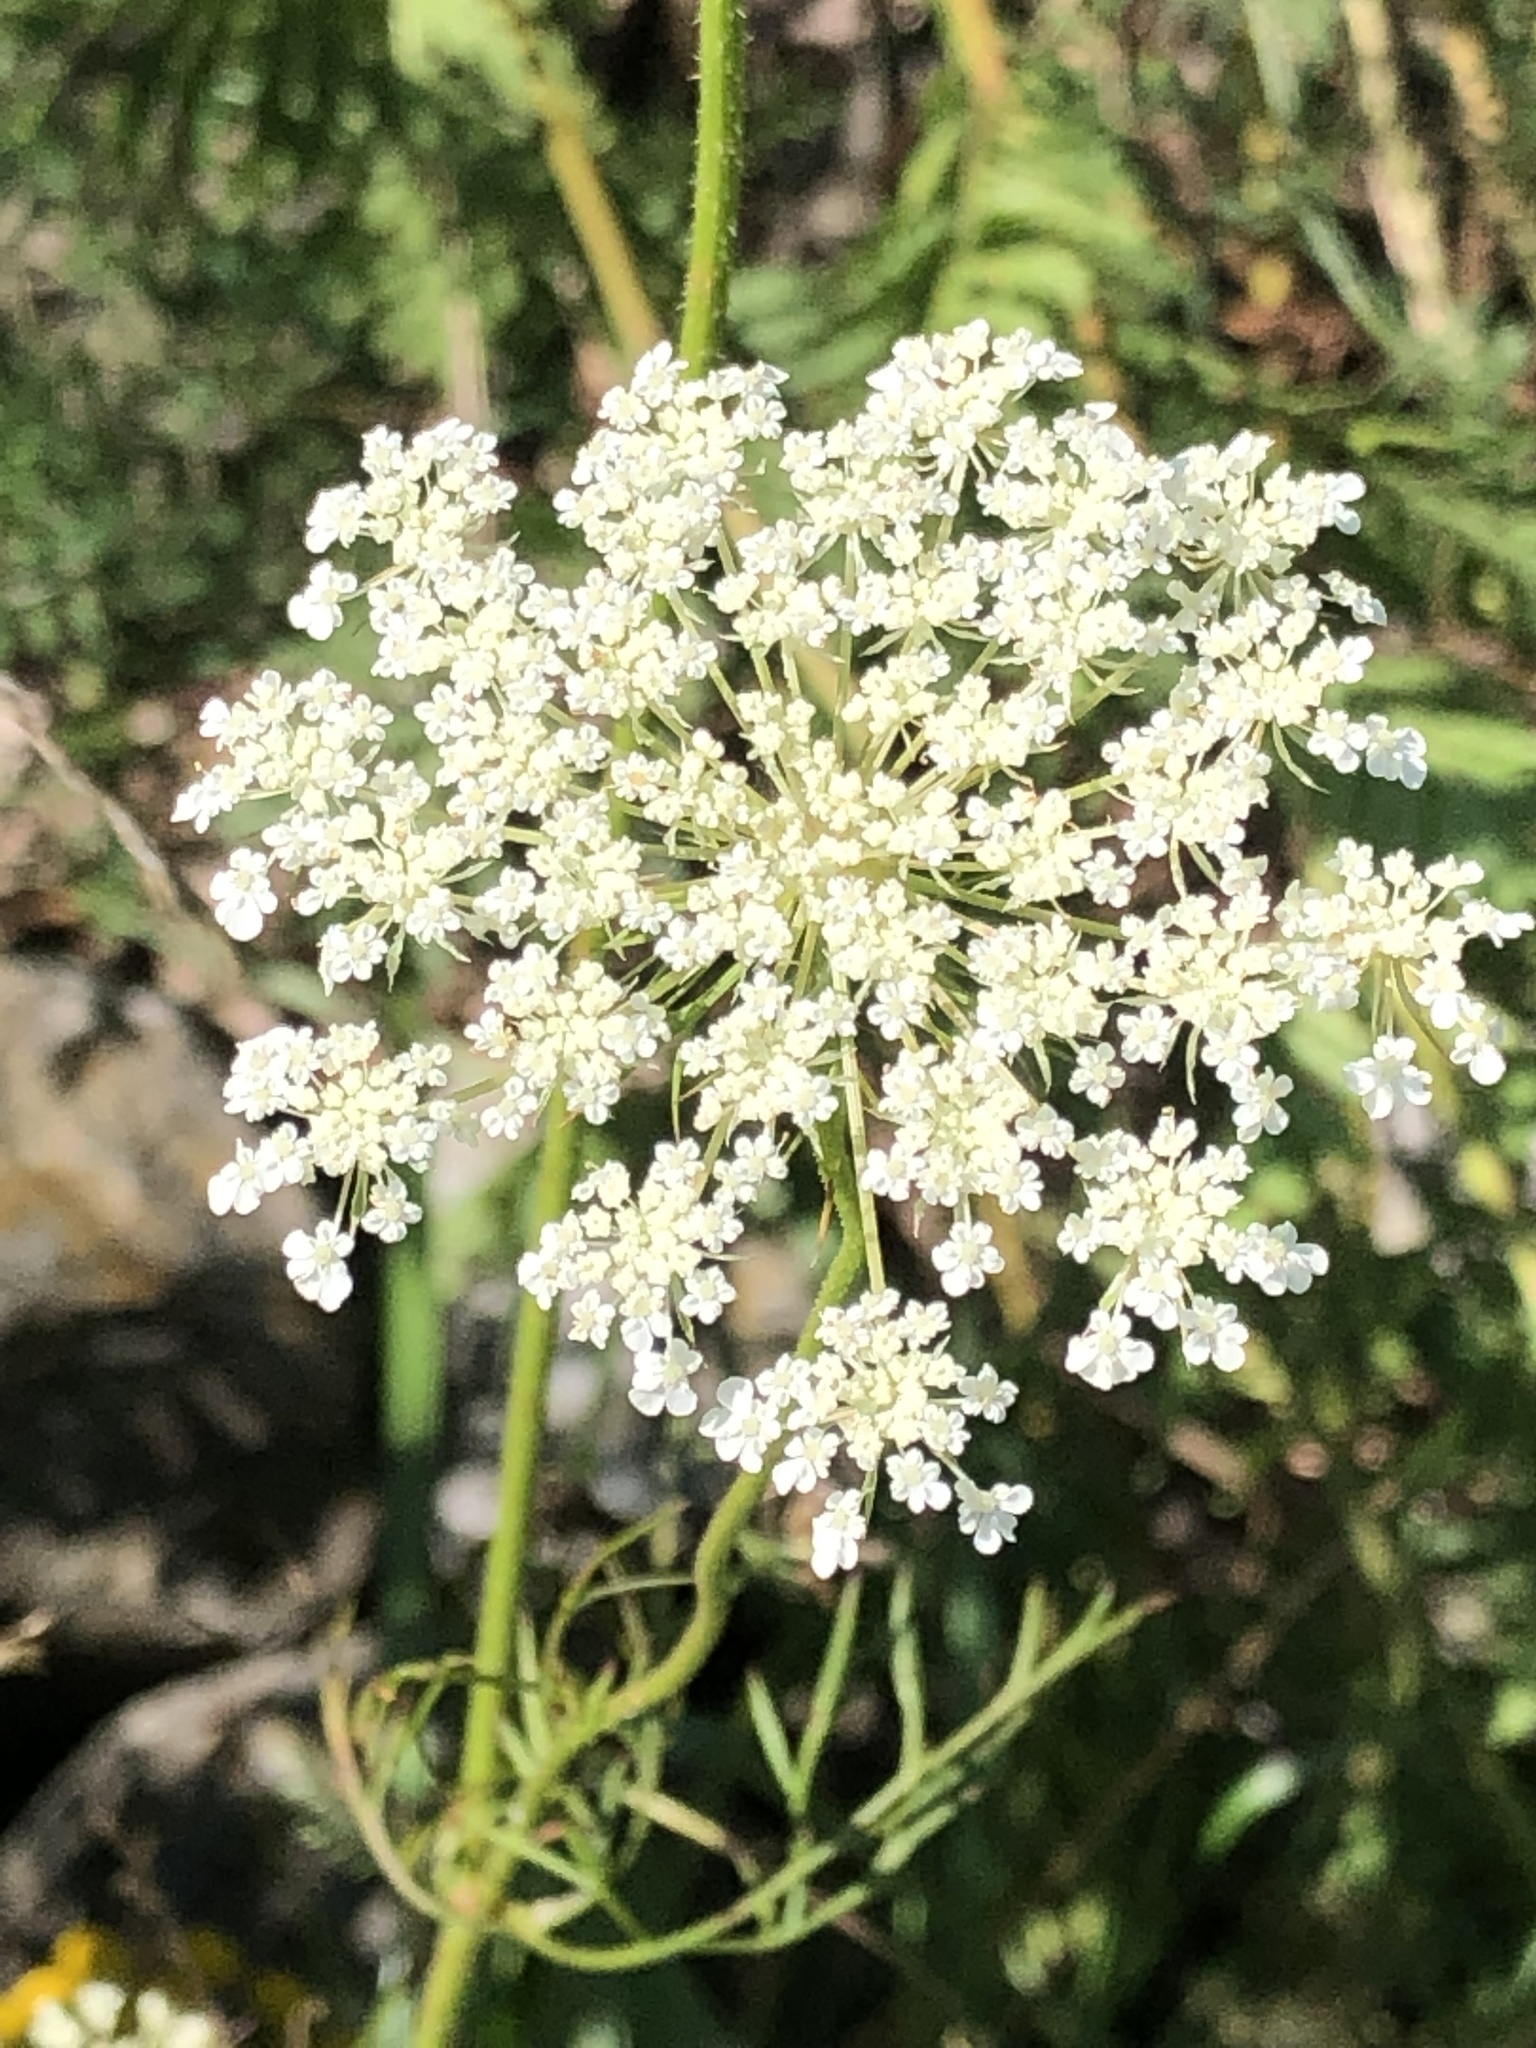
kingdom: Plantae
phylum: Tracheophyta
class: Magnoliopsida
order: Apiales
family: Apiaceae
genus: Daucus
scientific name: Daucus carota
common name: Wild carrot
